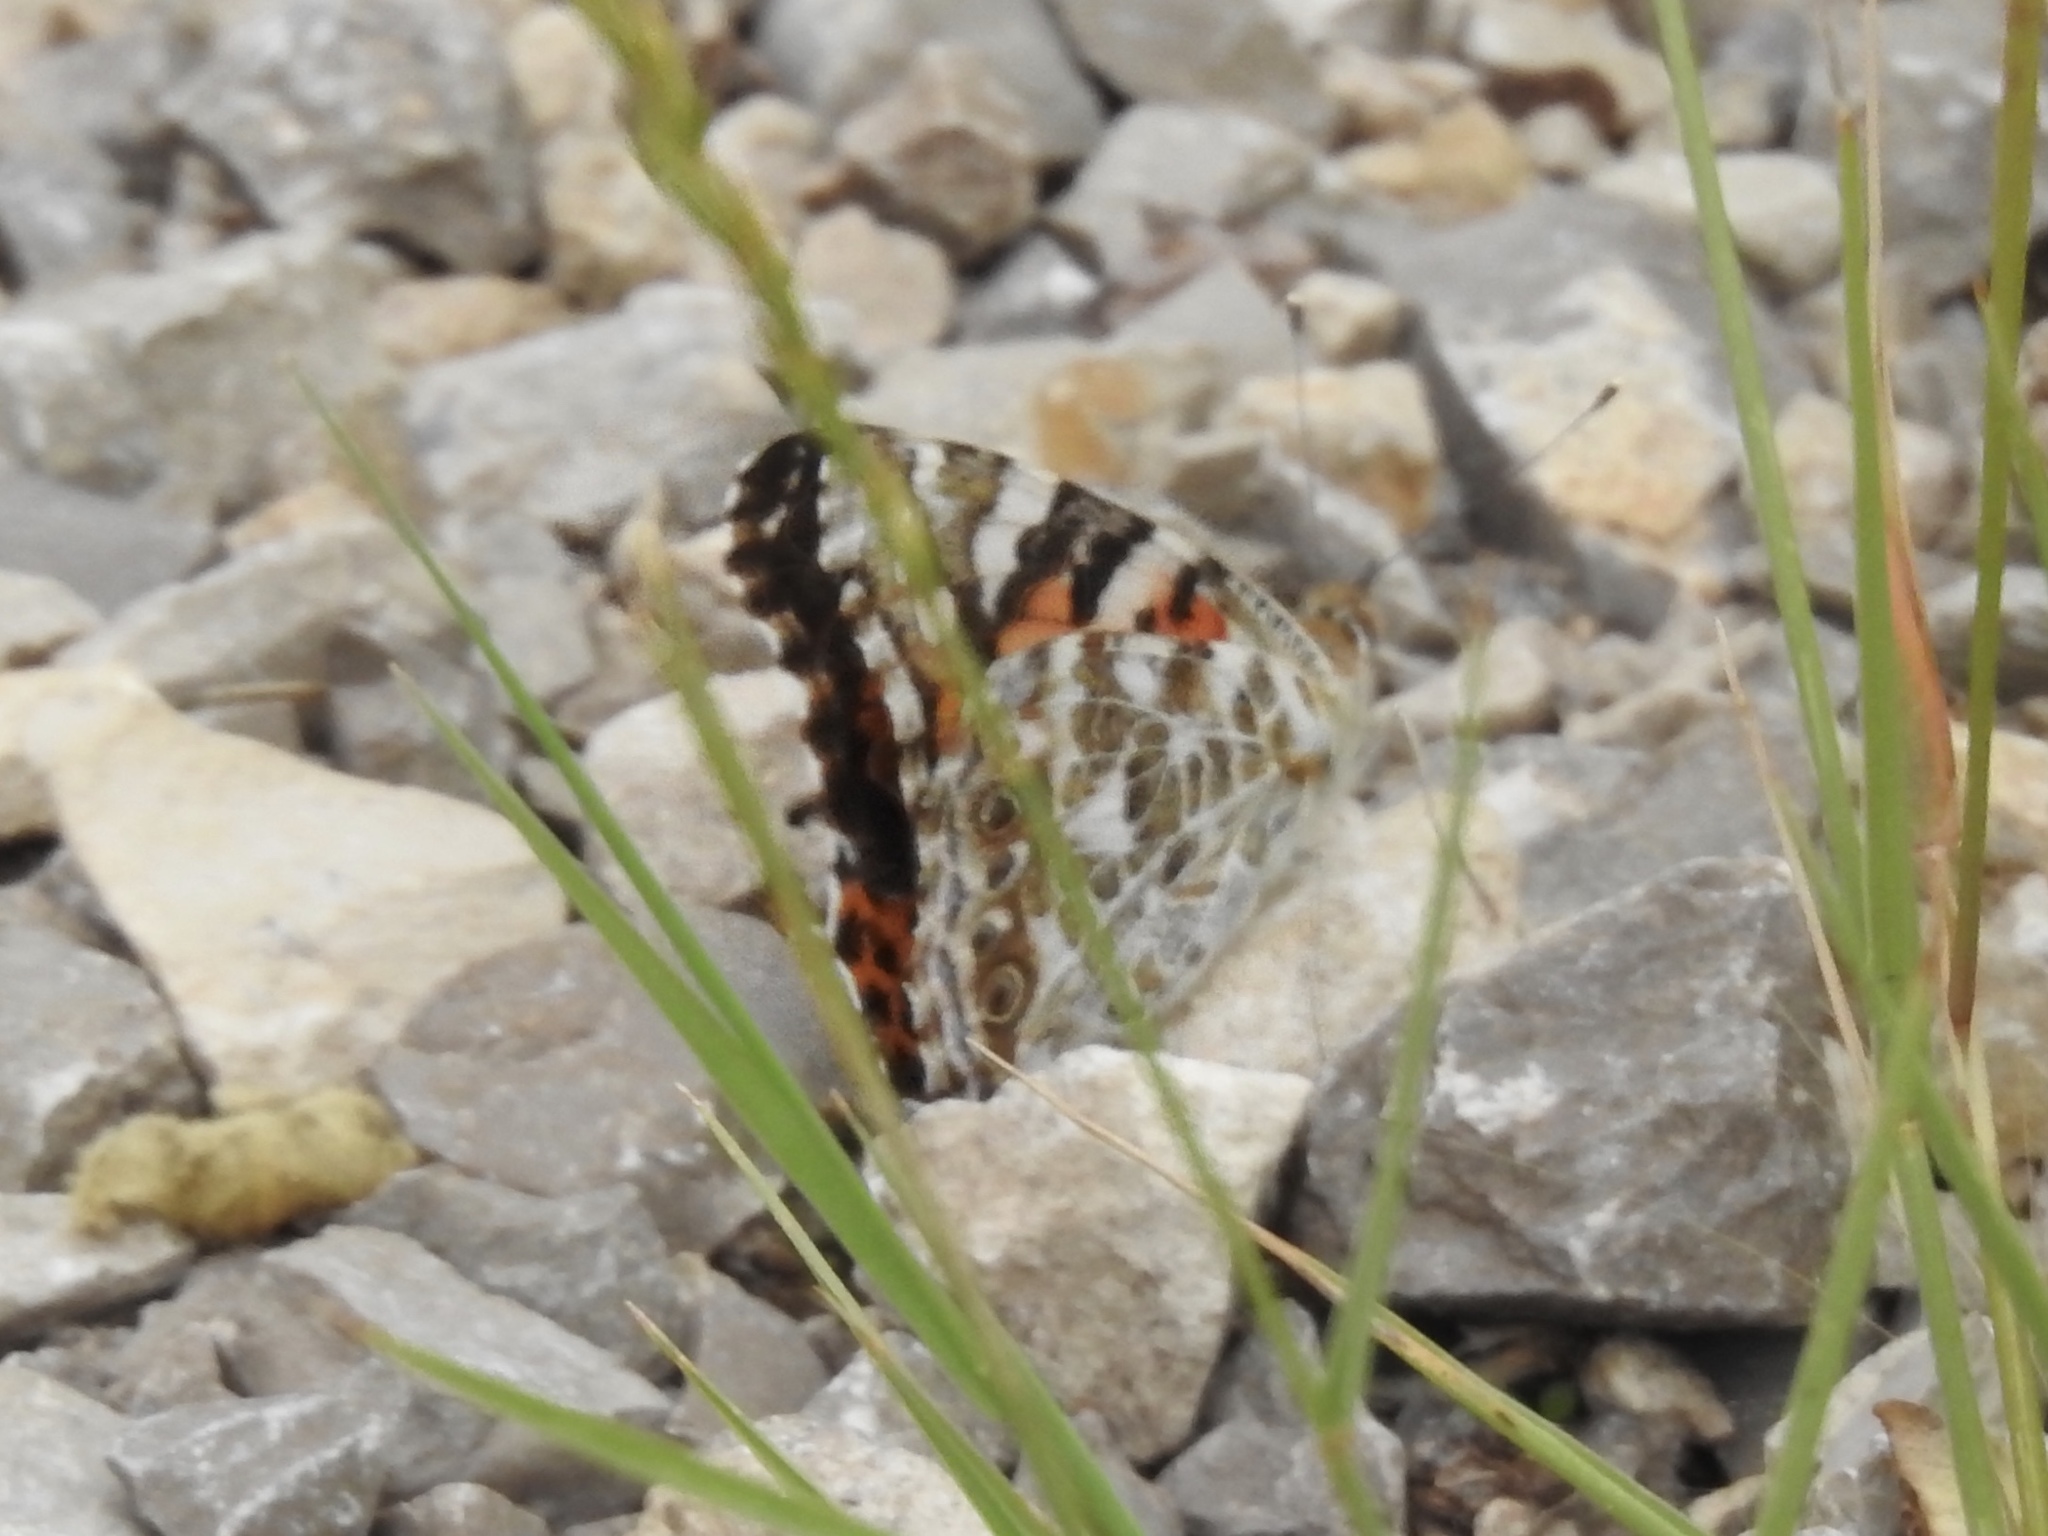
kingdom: Animalia
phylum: Arthropoda
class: Insecta
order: Lepidoptera
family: Nymphalidae
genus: Vanessa
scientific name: Vanessa cardui
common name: Painted lady
